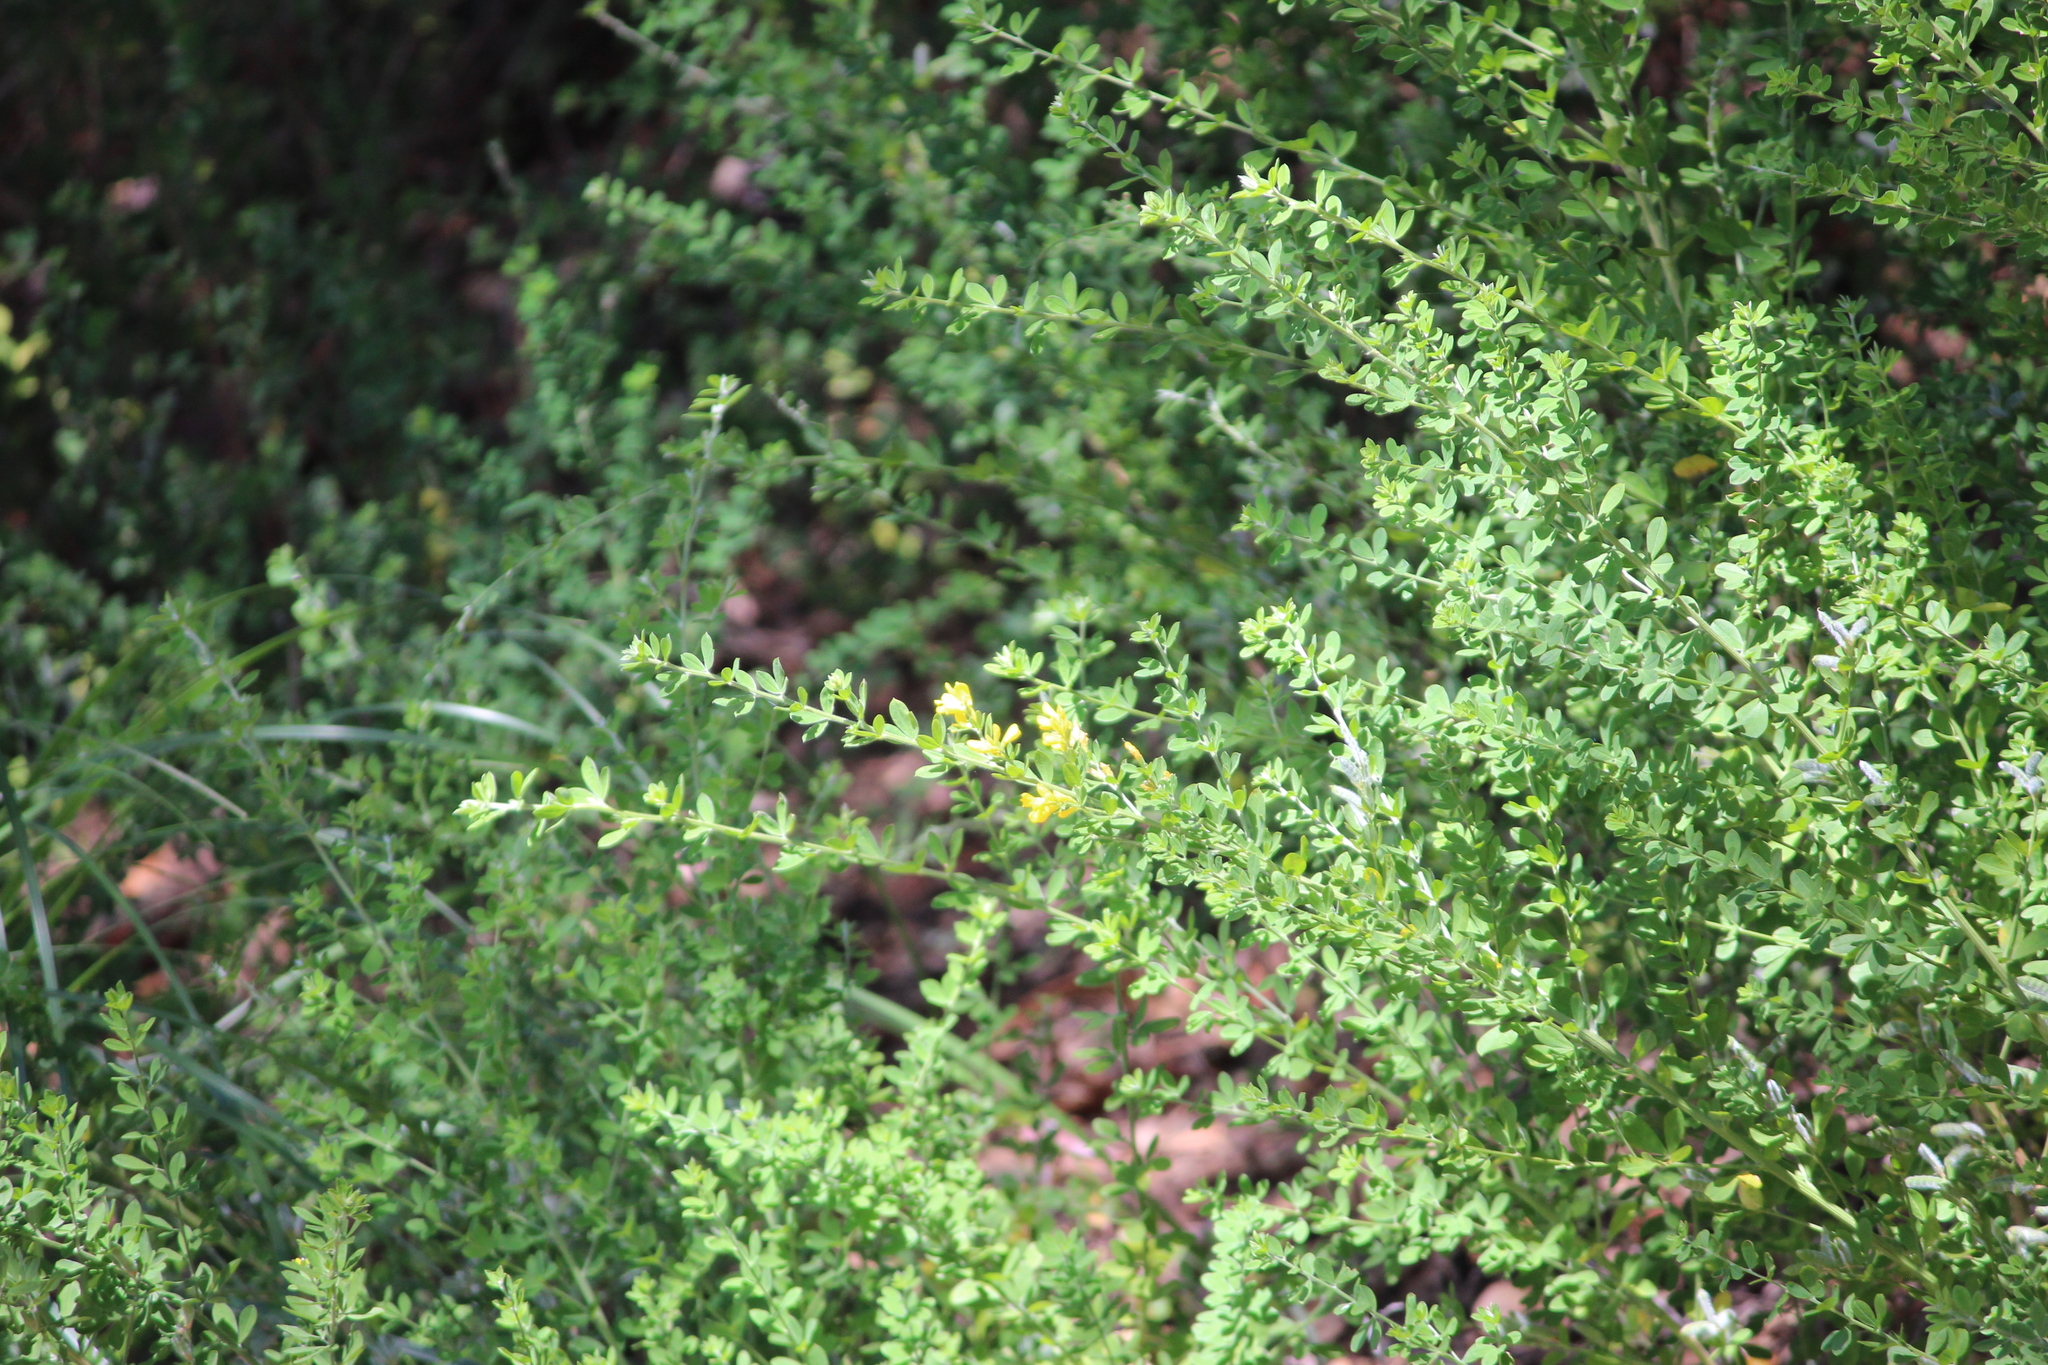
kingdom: Plantae
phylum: Tracheophyta
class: Magnoliopsida
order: Fabales
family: Fabaceae
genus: Genista
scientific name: Genista monspessulana
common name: Montpellier broom
